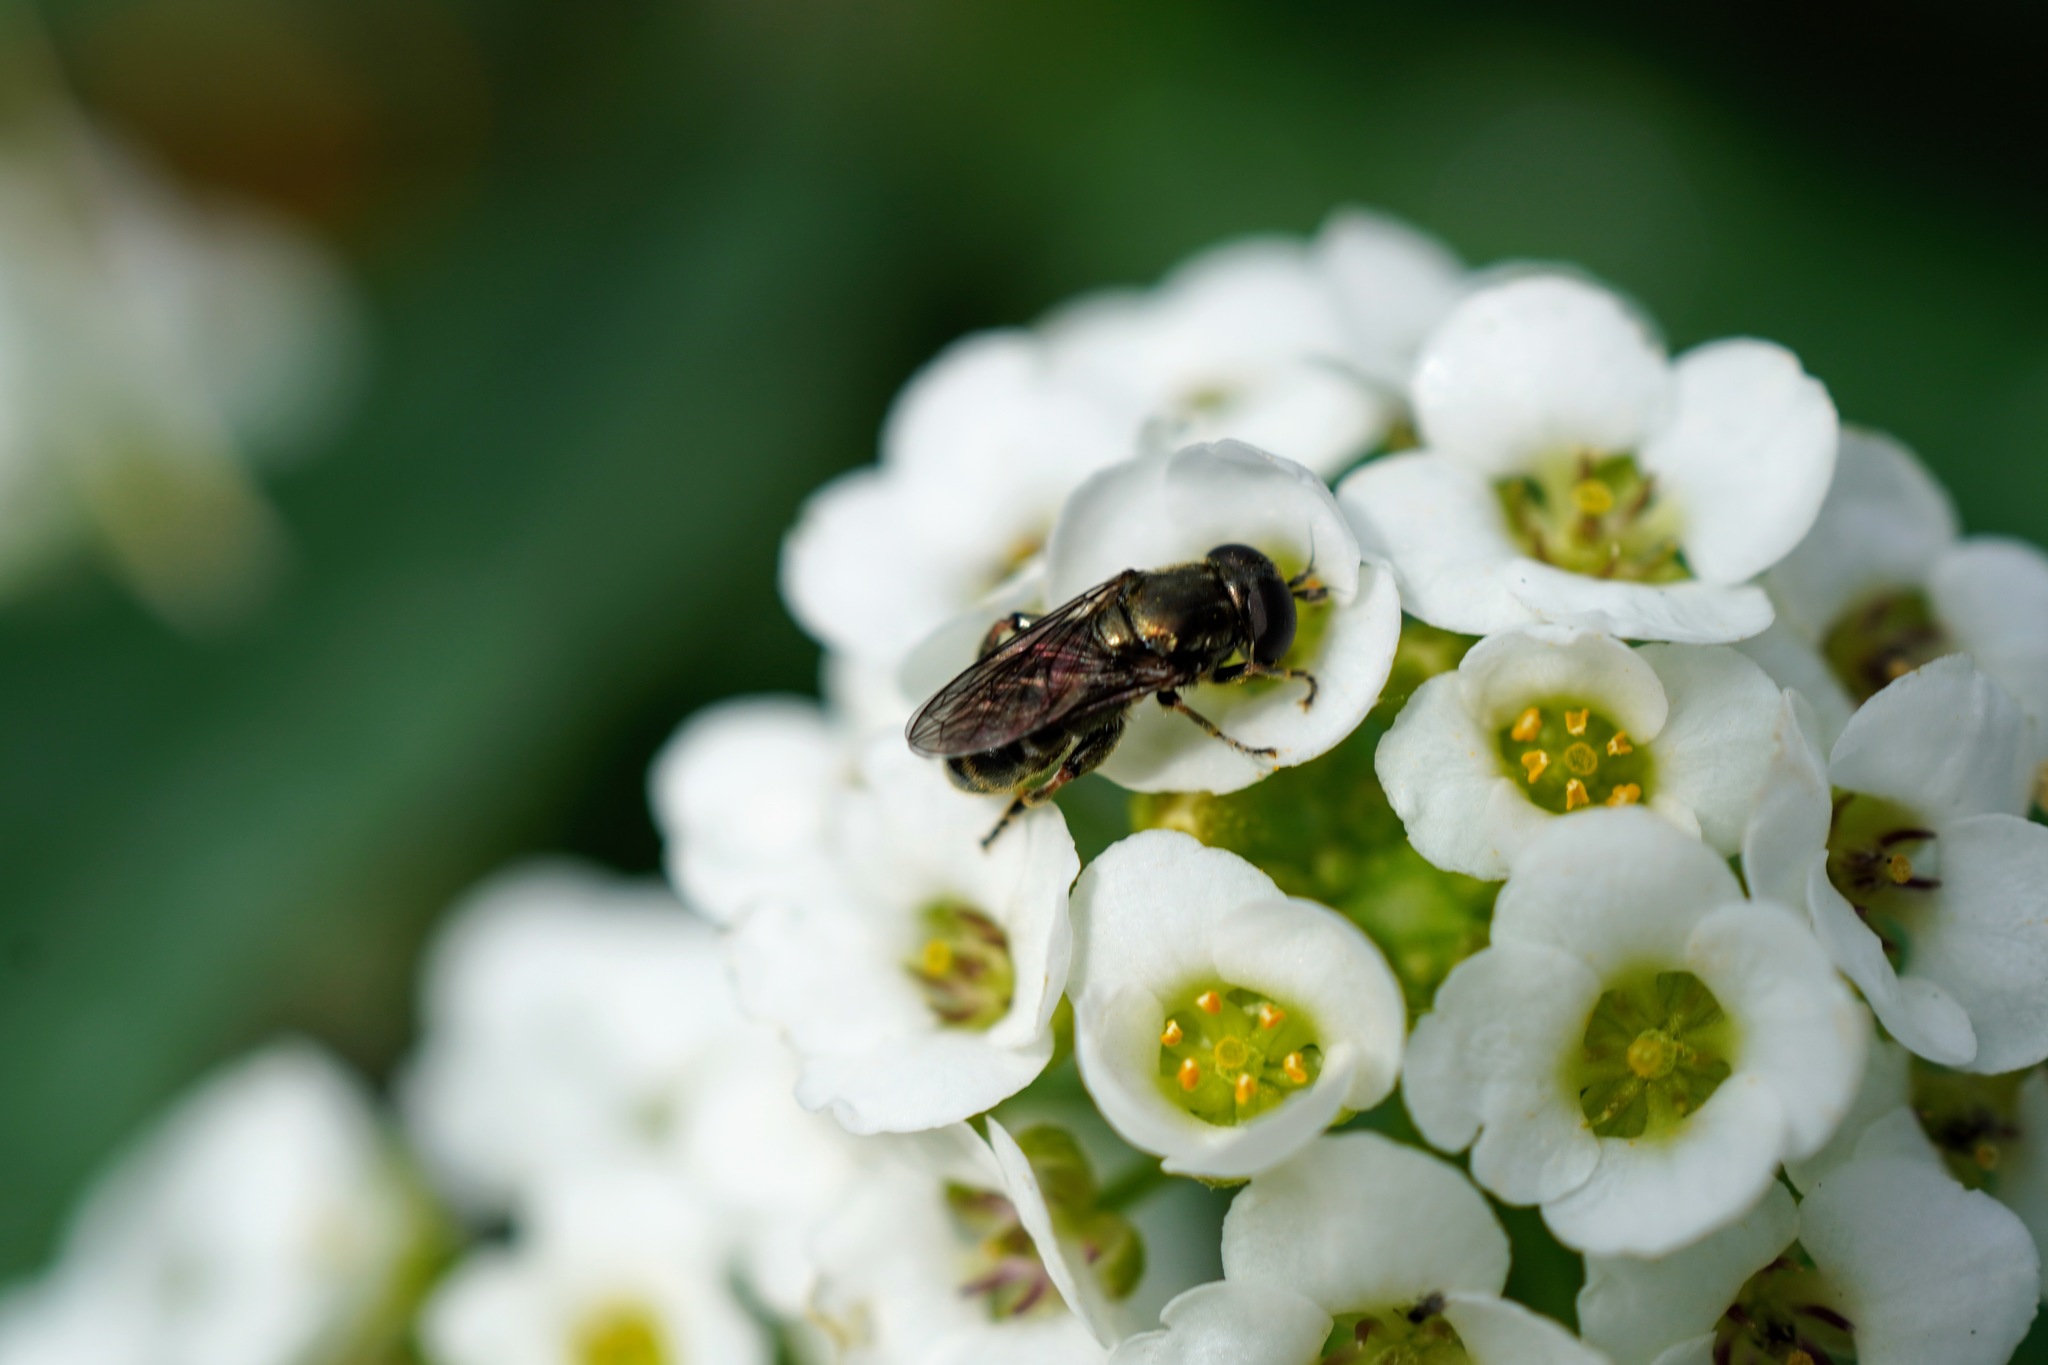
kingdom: Animalia
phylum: Arthropoda
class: Insecta
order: Diptera
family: Syrphidae
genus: Eumerus
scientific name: Eumerus
